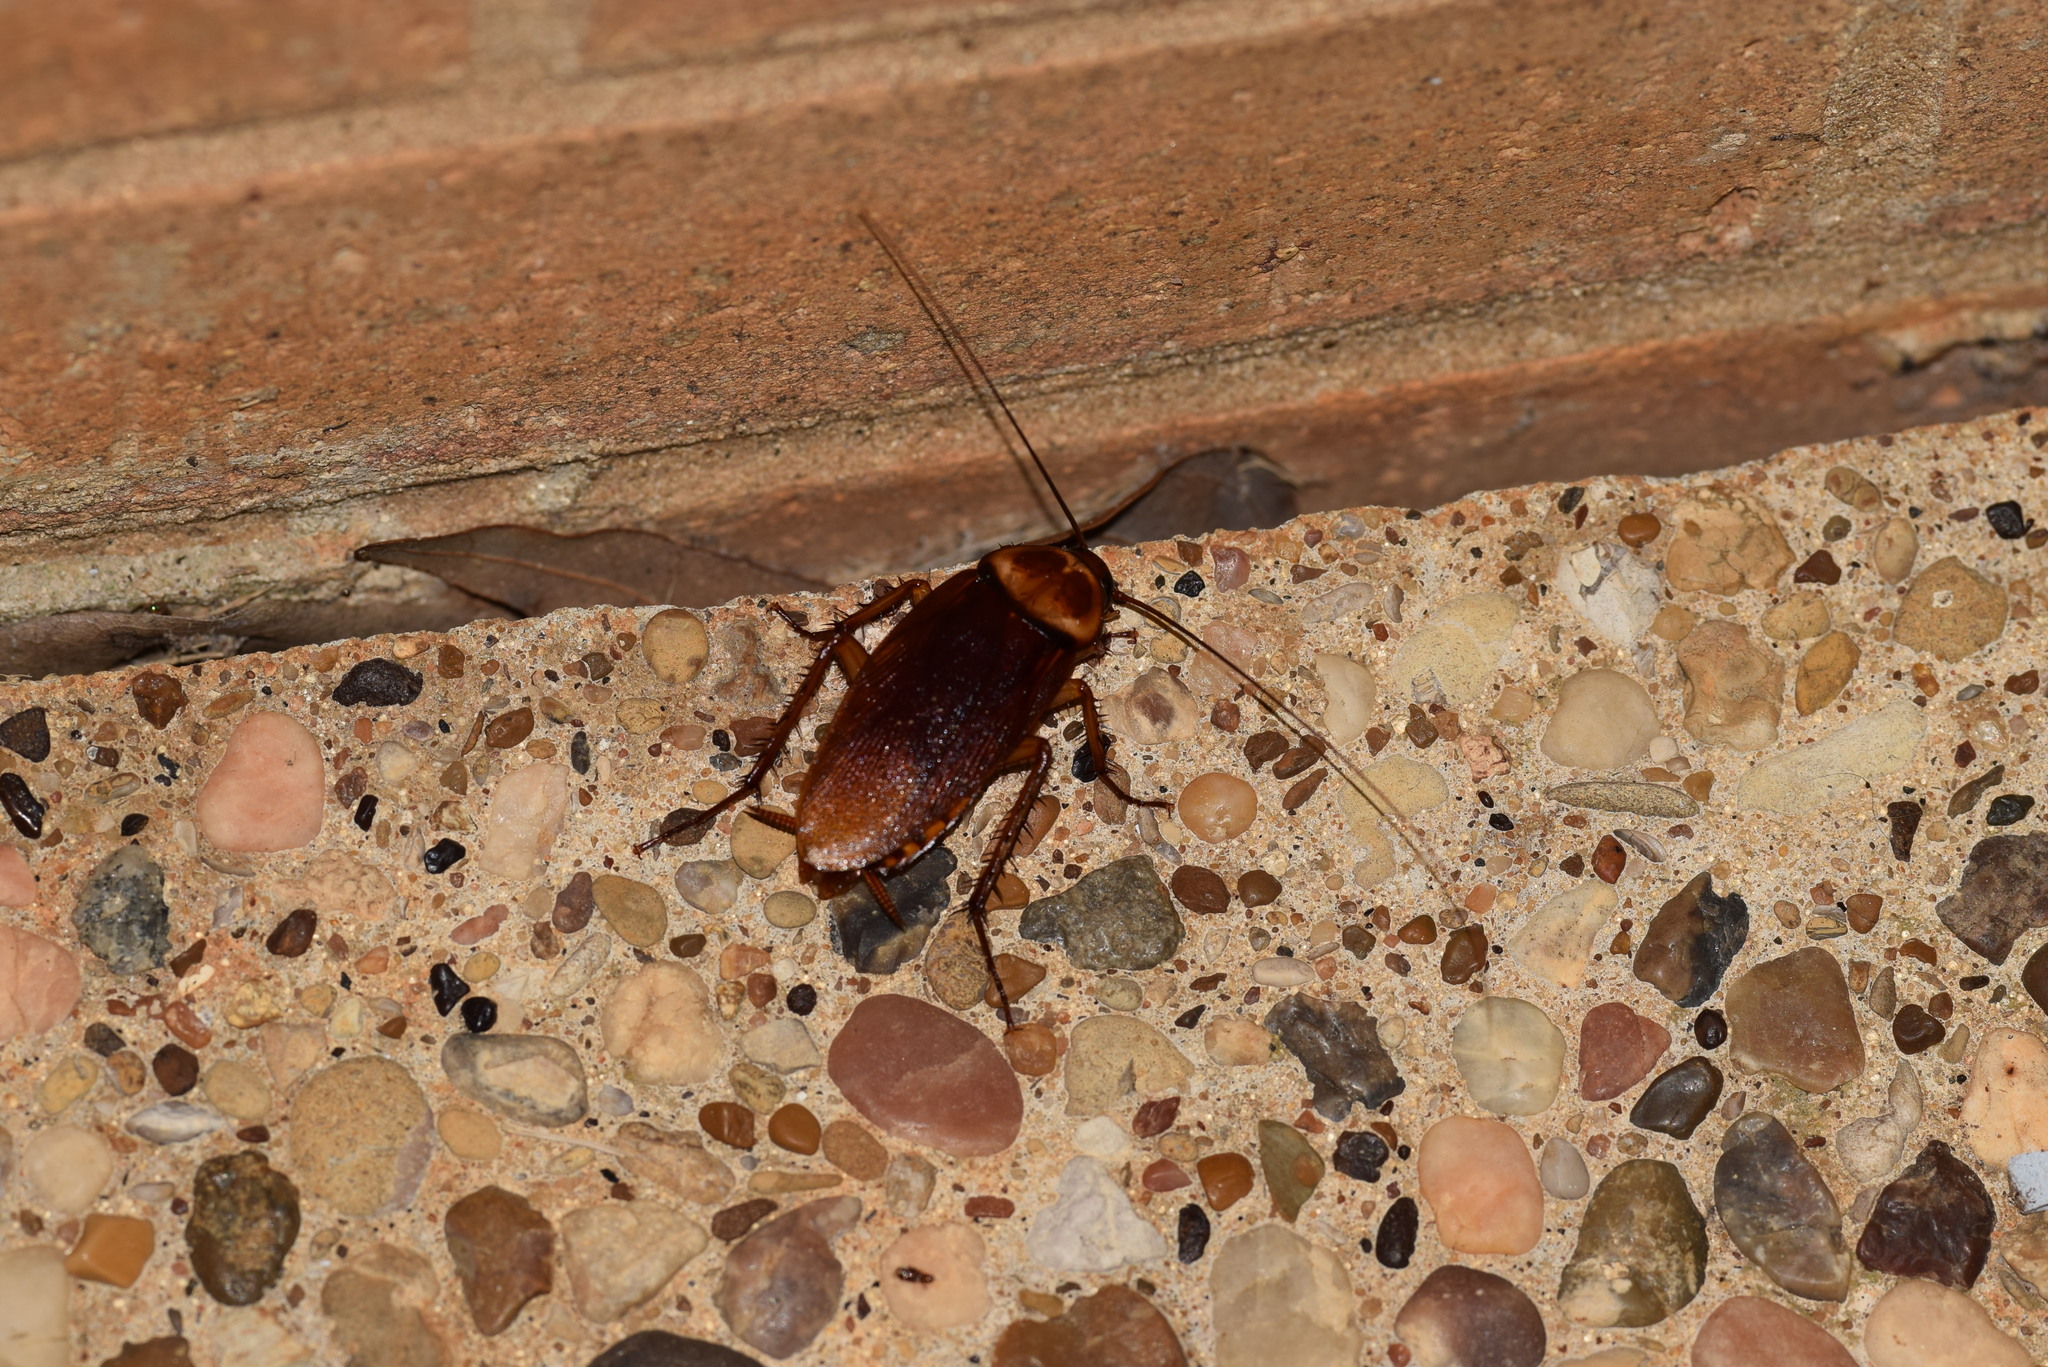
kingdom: Animalia
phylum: Arthropoda
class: Insecta
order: Blattodea
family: Blattidae
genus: Periplaneta
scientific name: Periplaneta americana
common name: American cockroach
